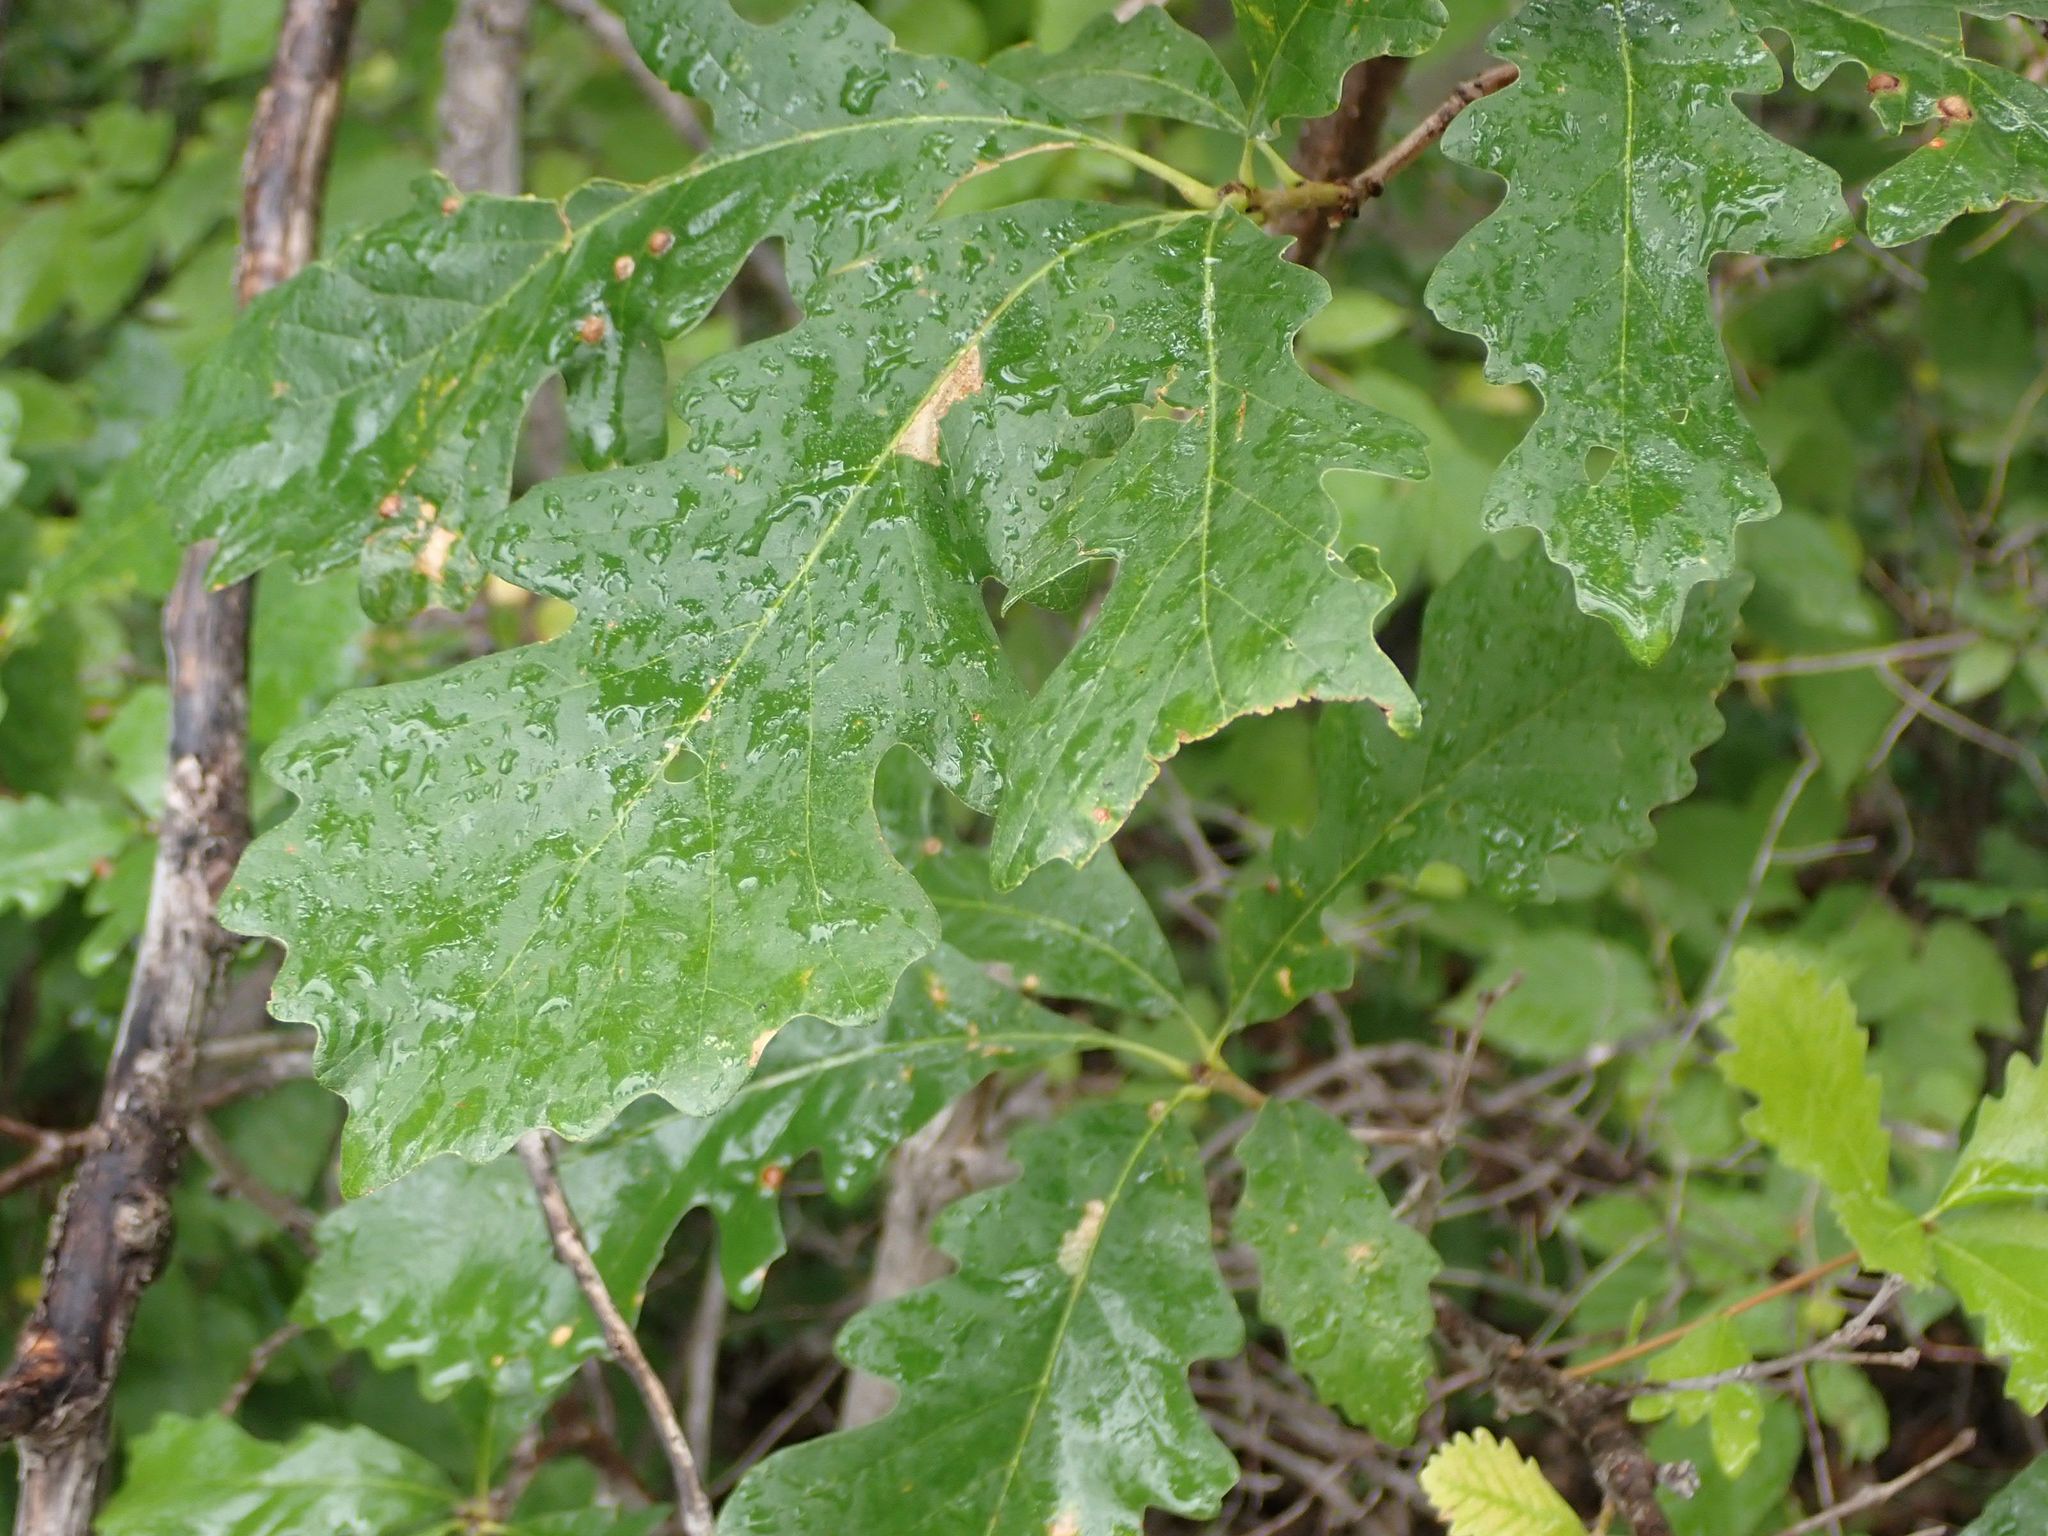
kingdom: Plantae
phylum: Tracheophyta
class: Magnoliopsida
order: Fagales
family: Fagaceae
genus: Quercus
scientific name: Quercus macrocarpa
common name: Bur oak
